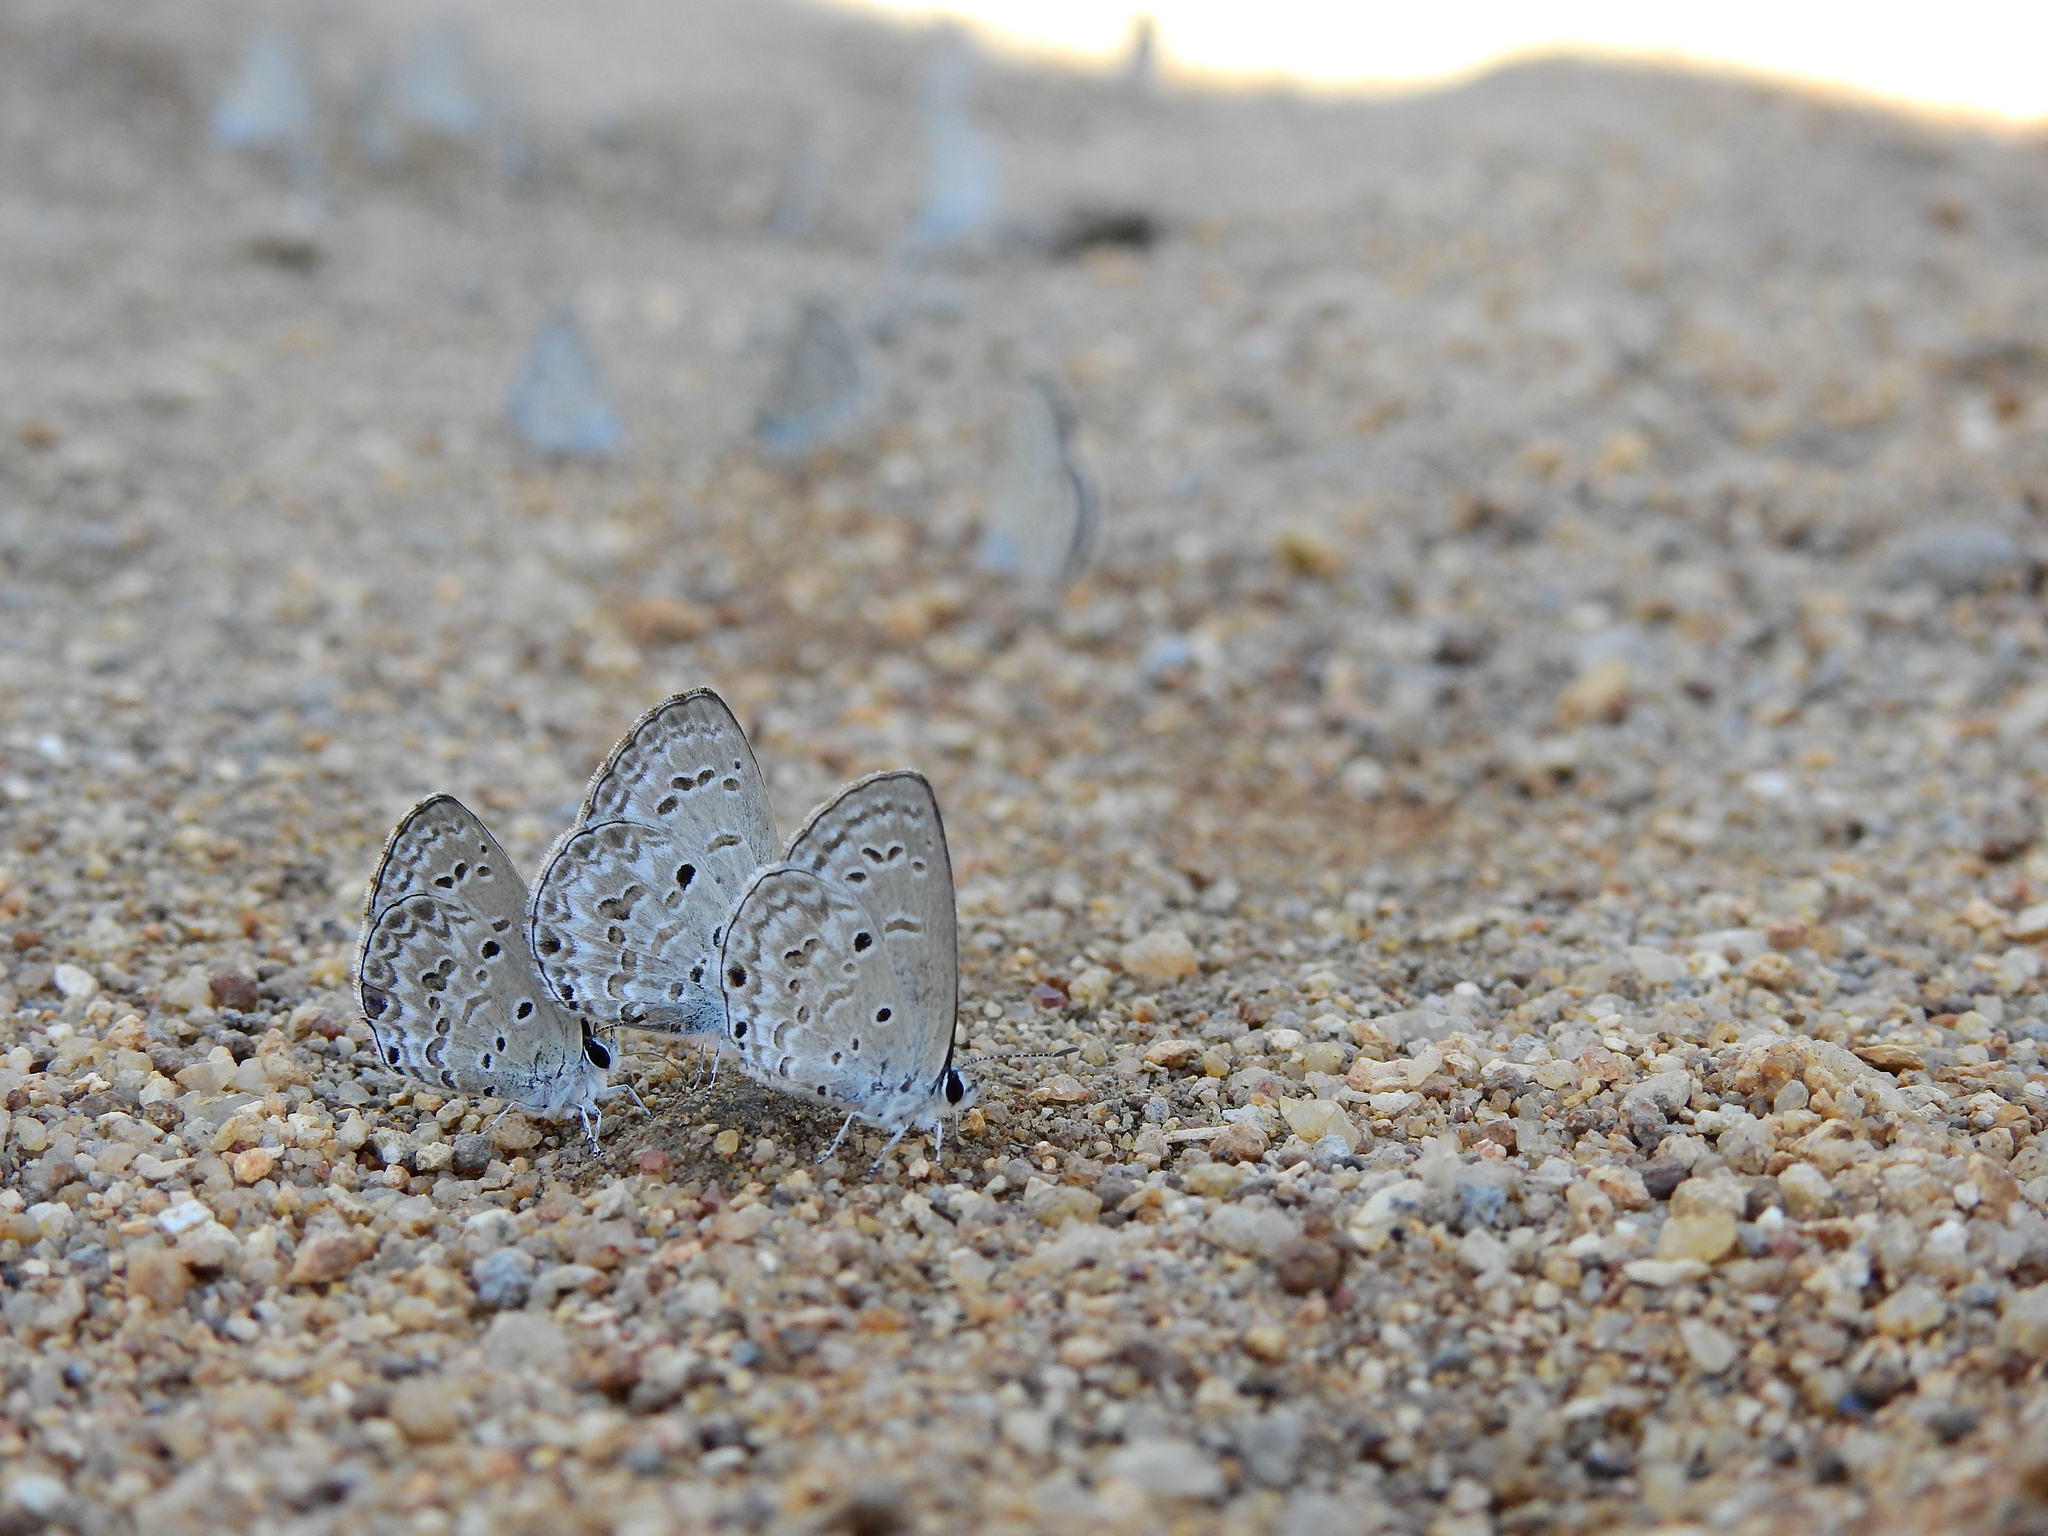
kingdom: Animalia
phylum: Arthropoda
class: Insecta
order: Lepidoptera
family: Lycaenidae
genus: Chilades
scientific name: Chilades laius
